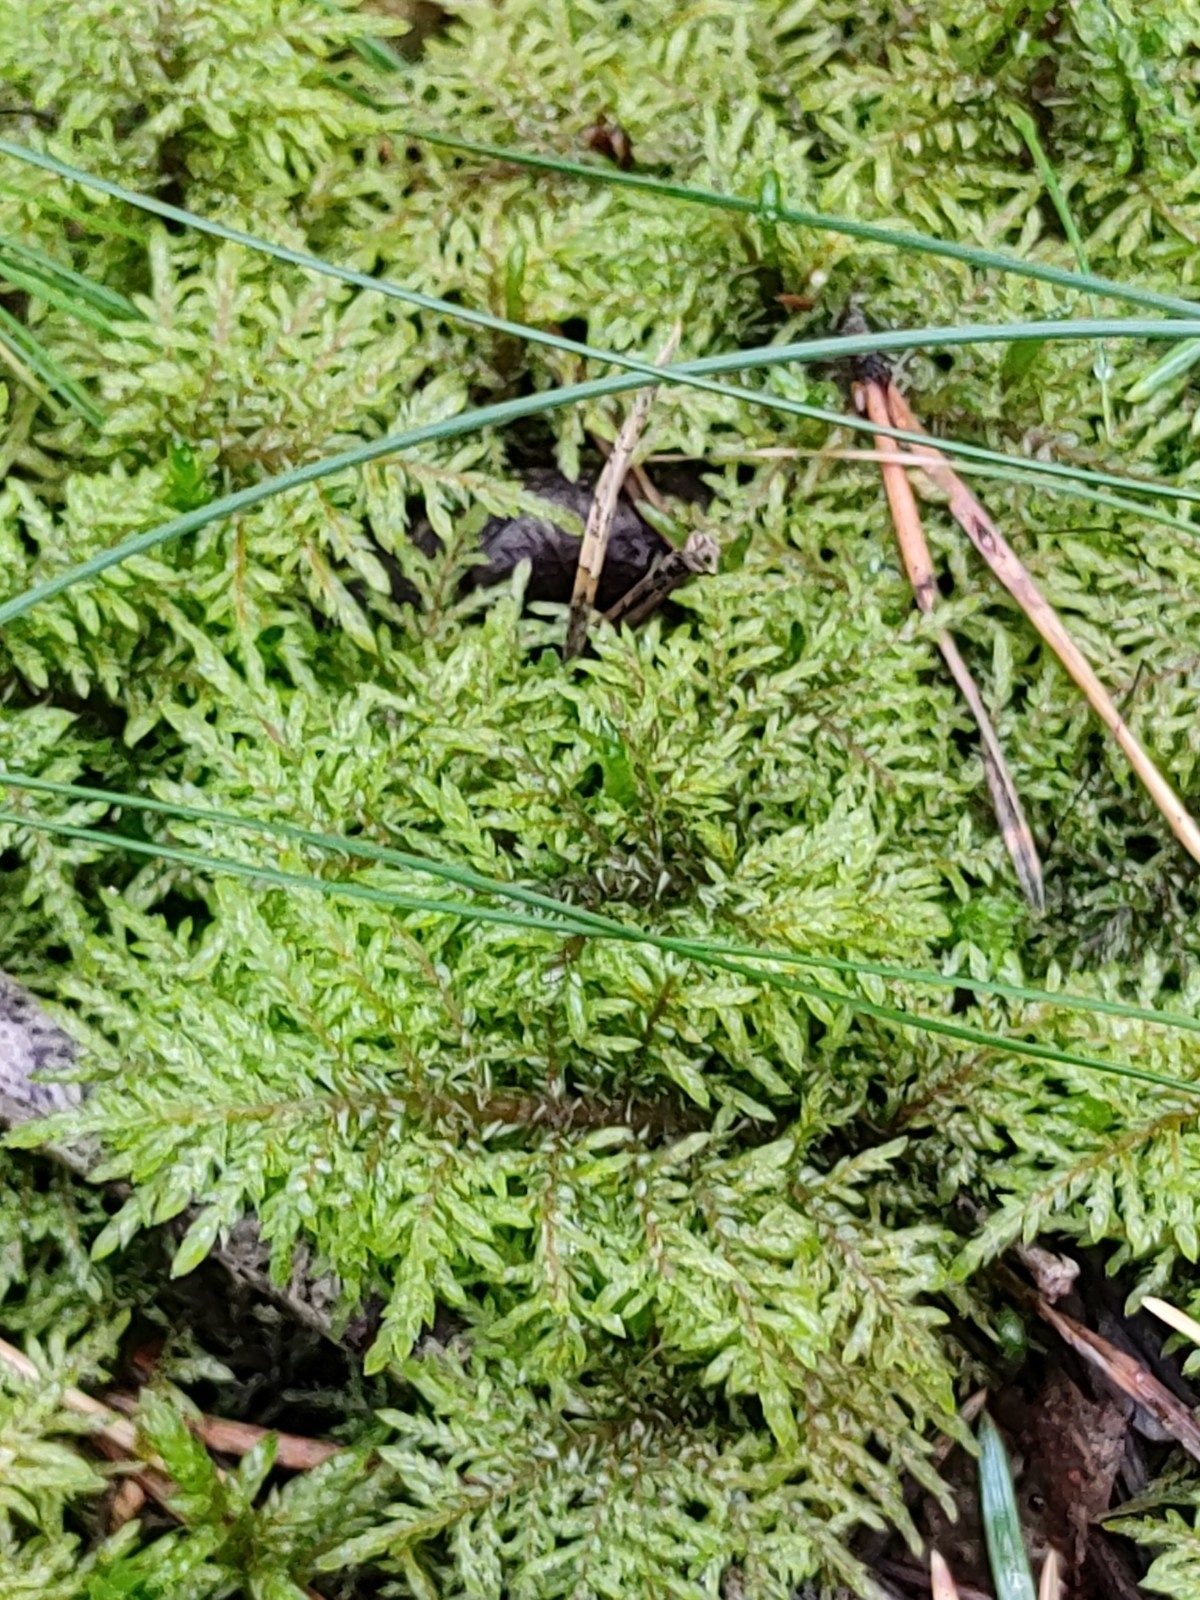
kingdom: Plantae
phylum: Bryophyta
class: Bryopsida
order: Hypnales
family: Hylocomiaceae
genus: Hylocomium
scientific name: Hylocomium splendens
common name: Stairstep moss
